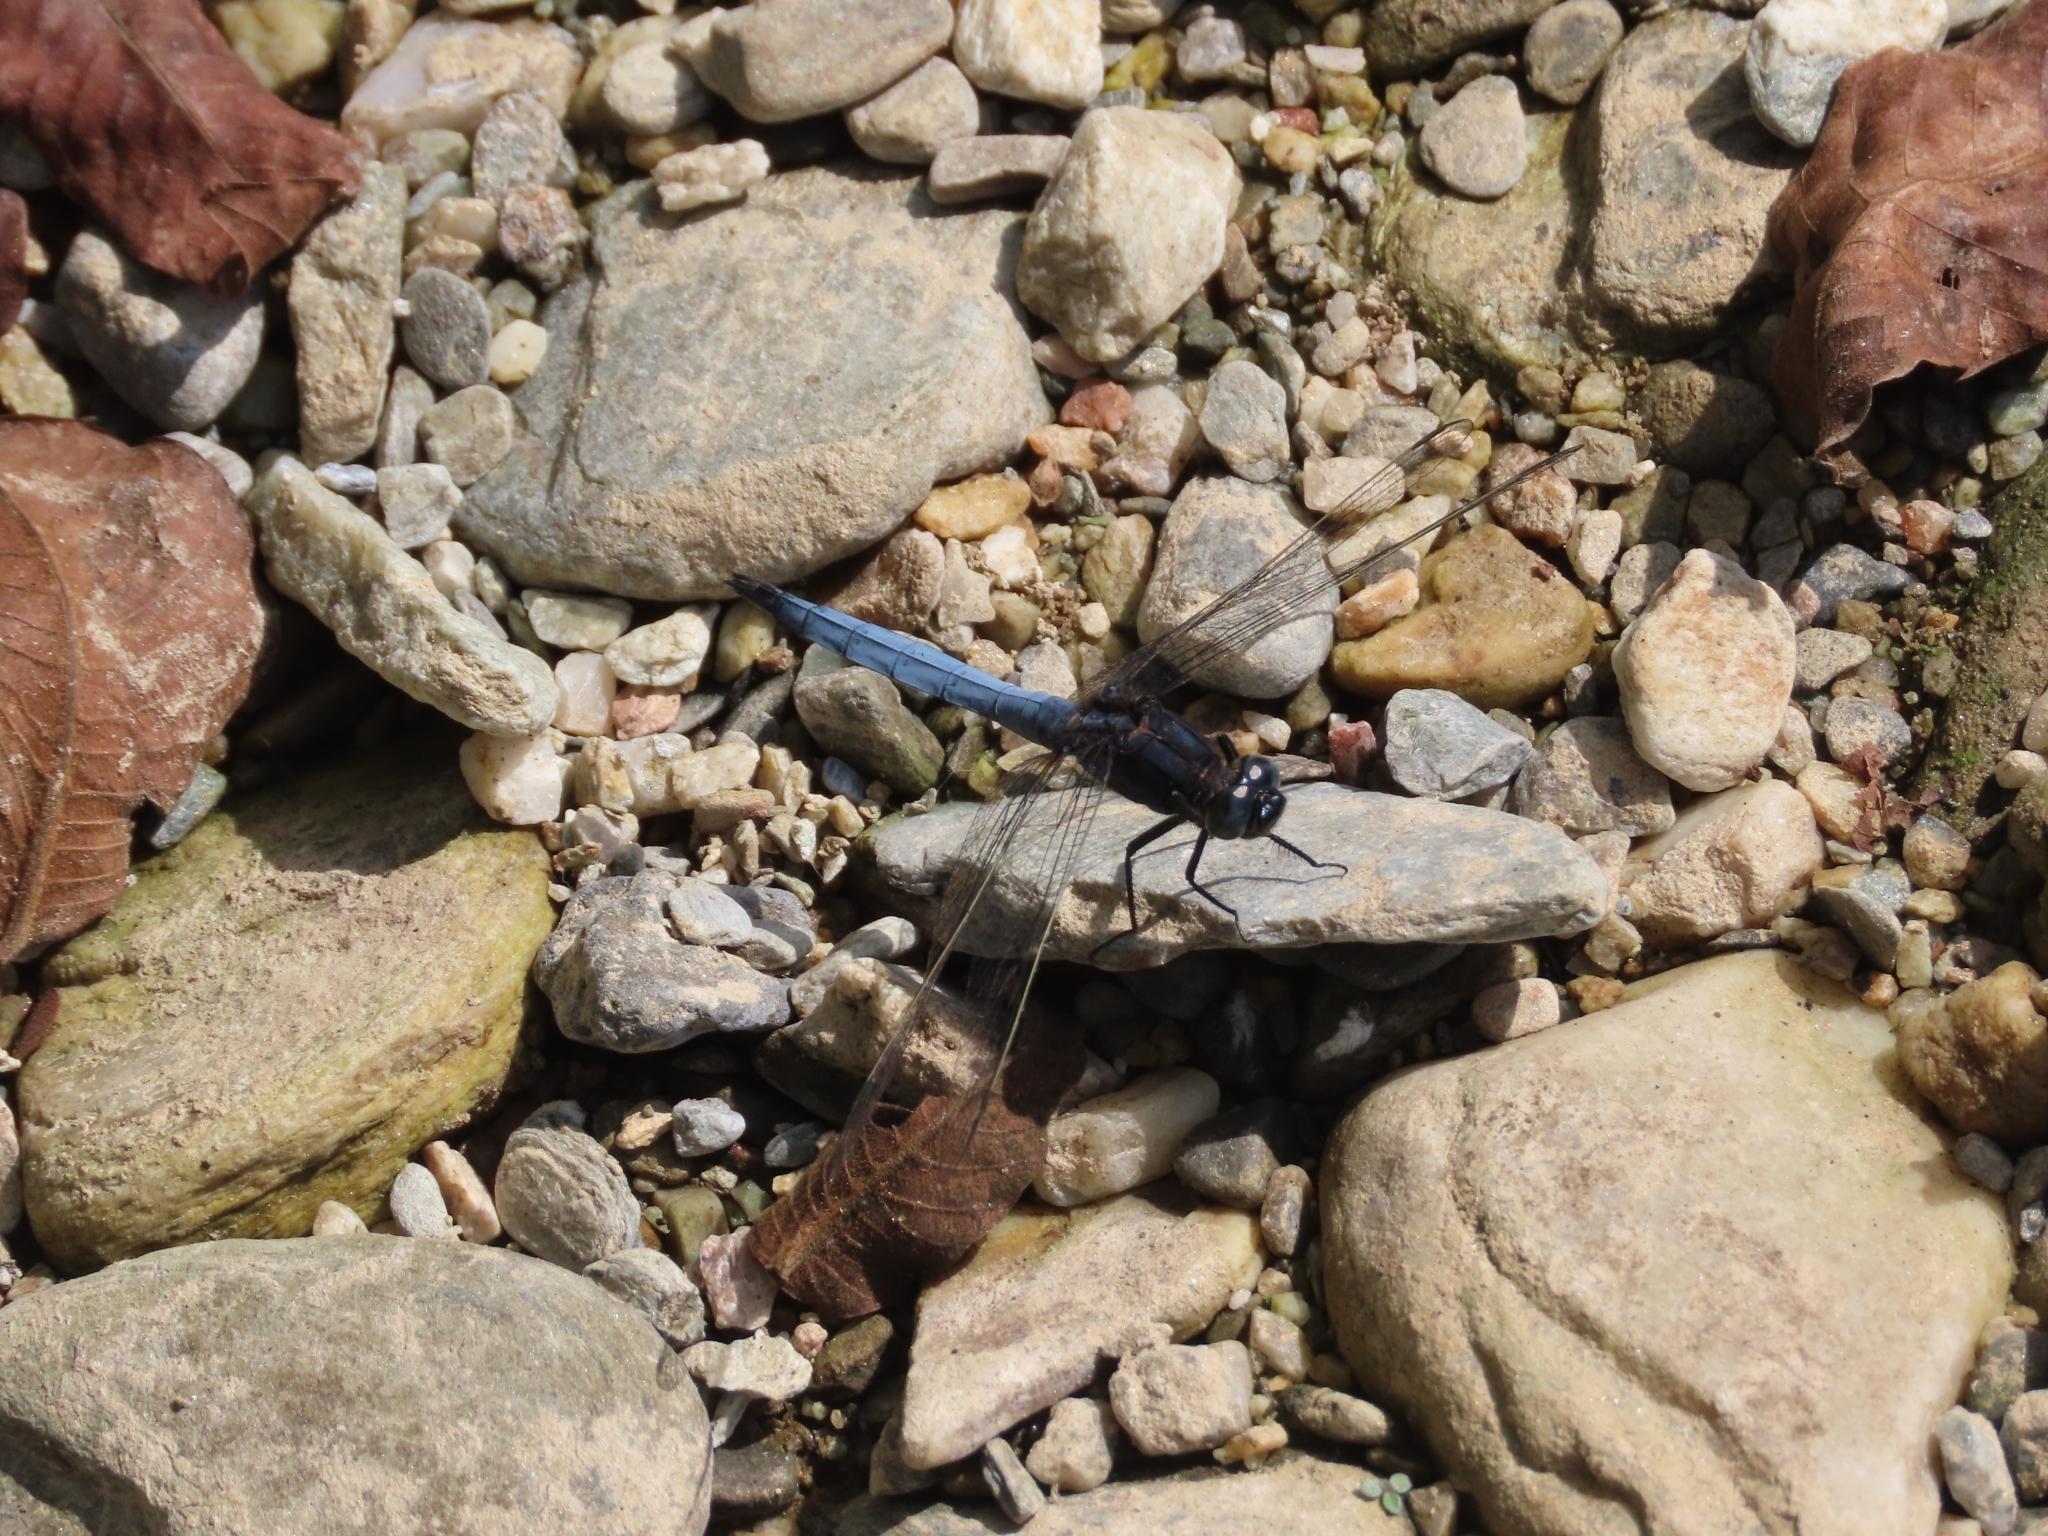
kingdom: Animalia
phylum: Arthropoda
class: Insecta
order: Odonata
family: Libellulidae
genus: Orthetrum
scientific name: Orthetrum glaucum
